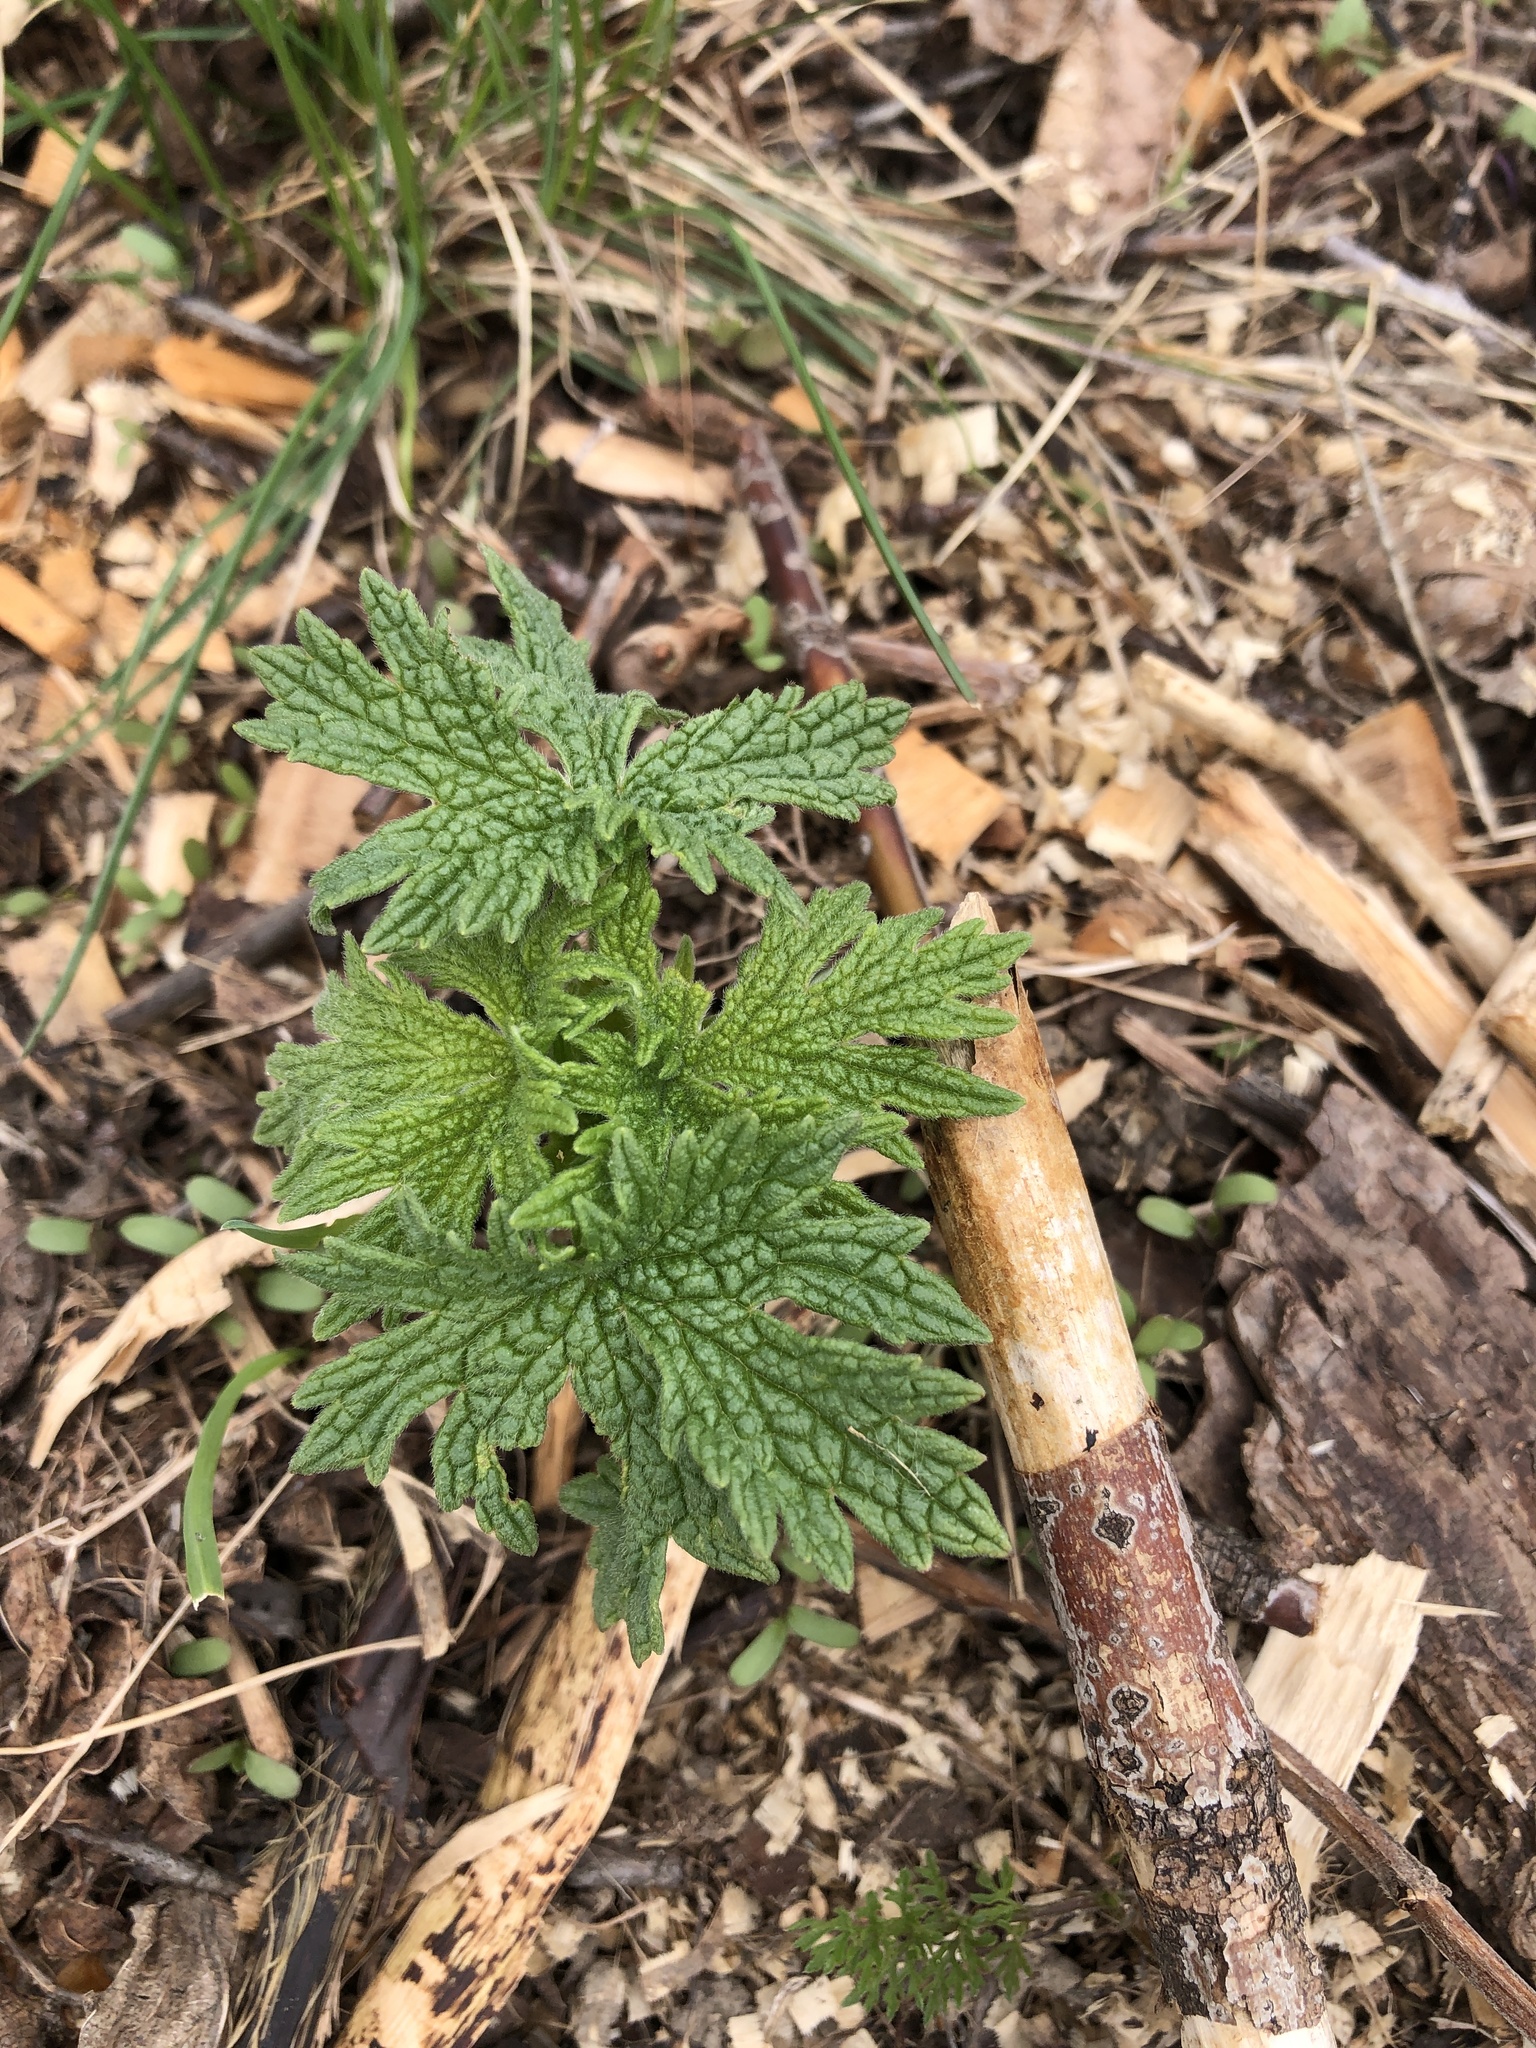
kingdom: Plantae
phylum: Tracheophyta
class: Magnoliopsida
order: Lamiales
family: Lamiaceae
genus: Leonurus
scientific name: Leonurus cardiaca
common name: Motherwort
